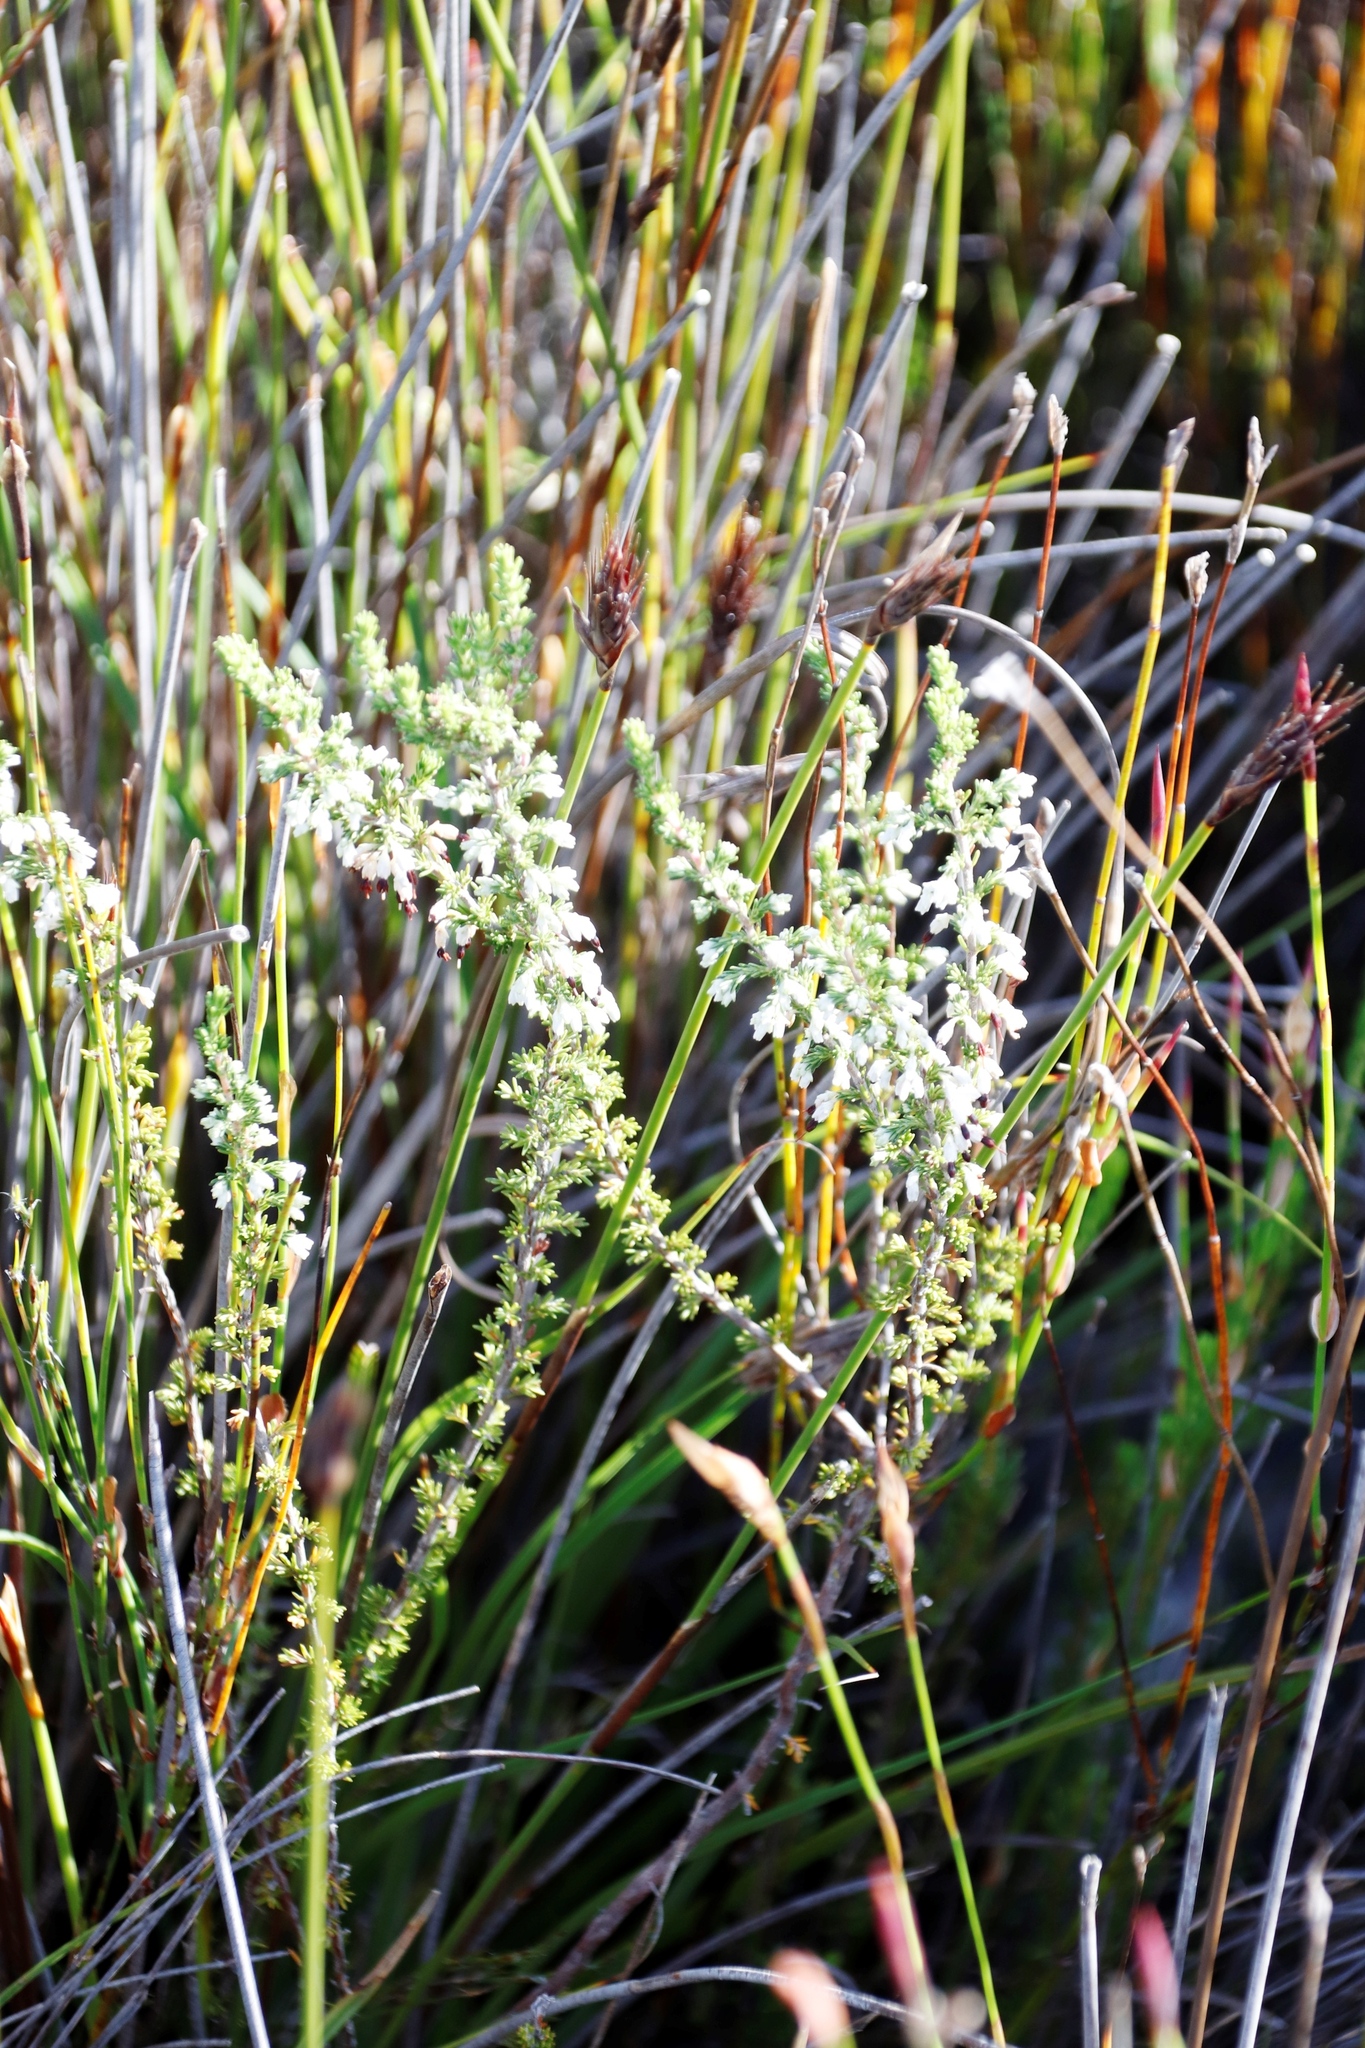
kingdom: Plantae
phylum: Tracheophyta
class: Magnoliopsida
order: Ericales
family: Ericaceae
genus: Erica
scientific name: Erica imbricata
